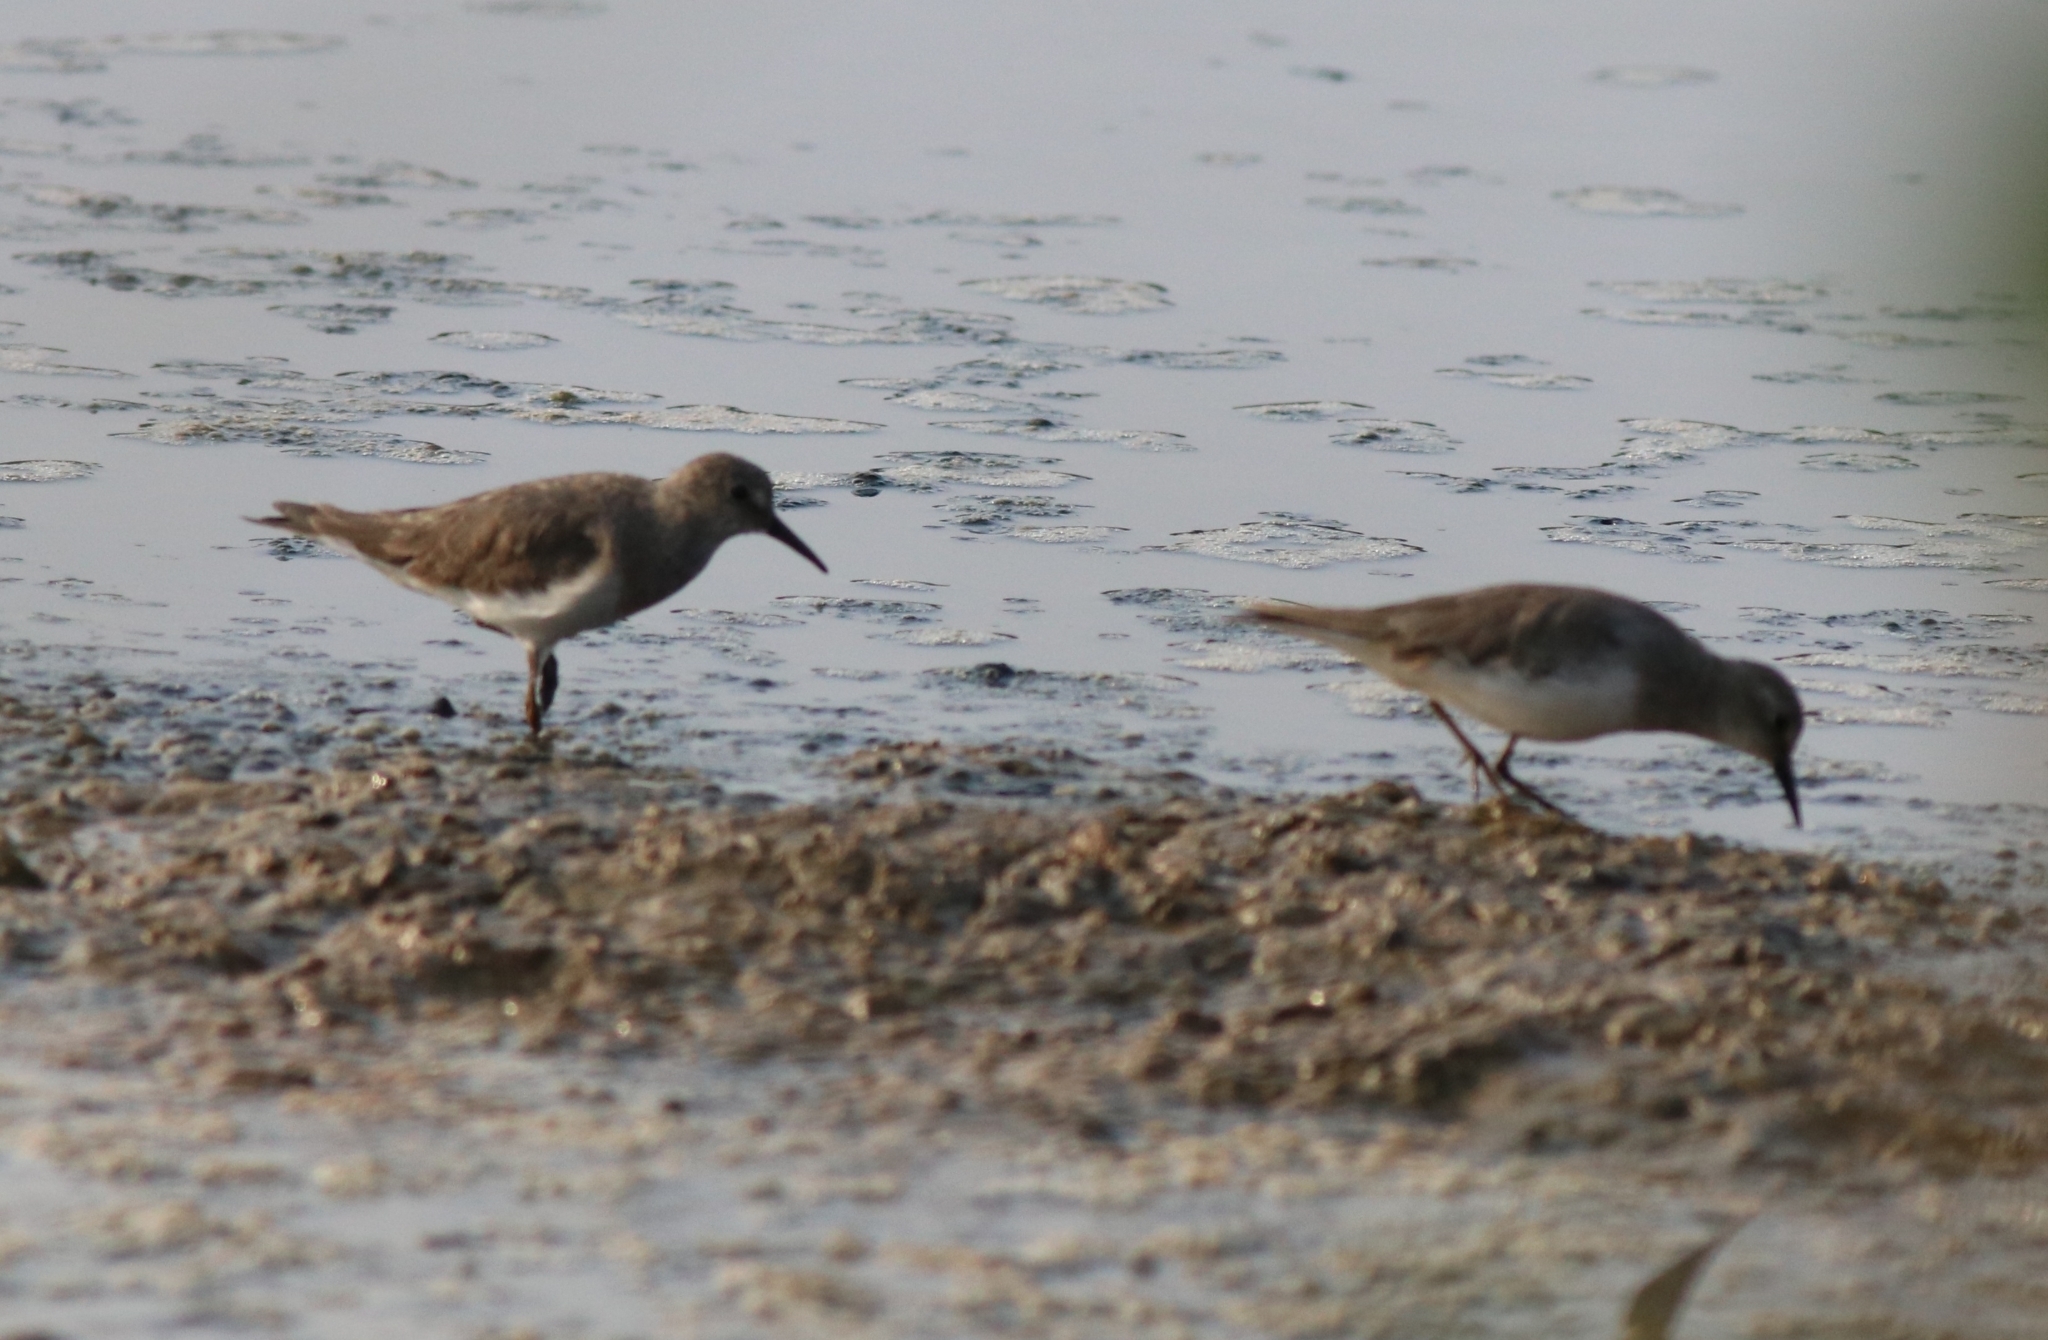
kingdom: Animalia
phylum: Chordata
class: Aves
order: Charadriiformes
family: Scolopacidae
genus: Calidris
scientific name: Calidris temminckii
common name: Temminck's stint
